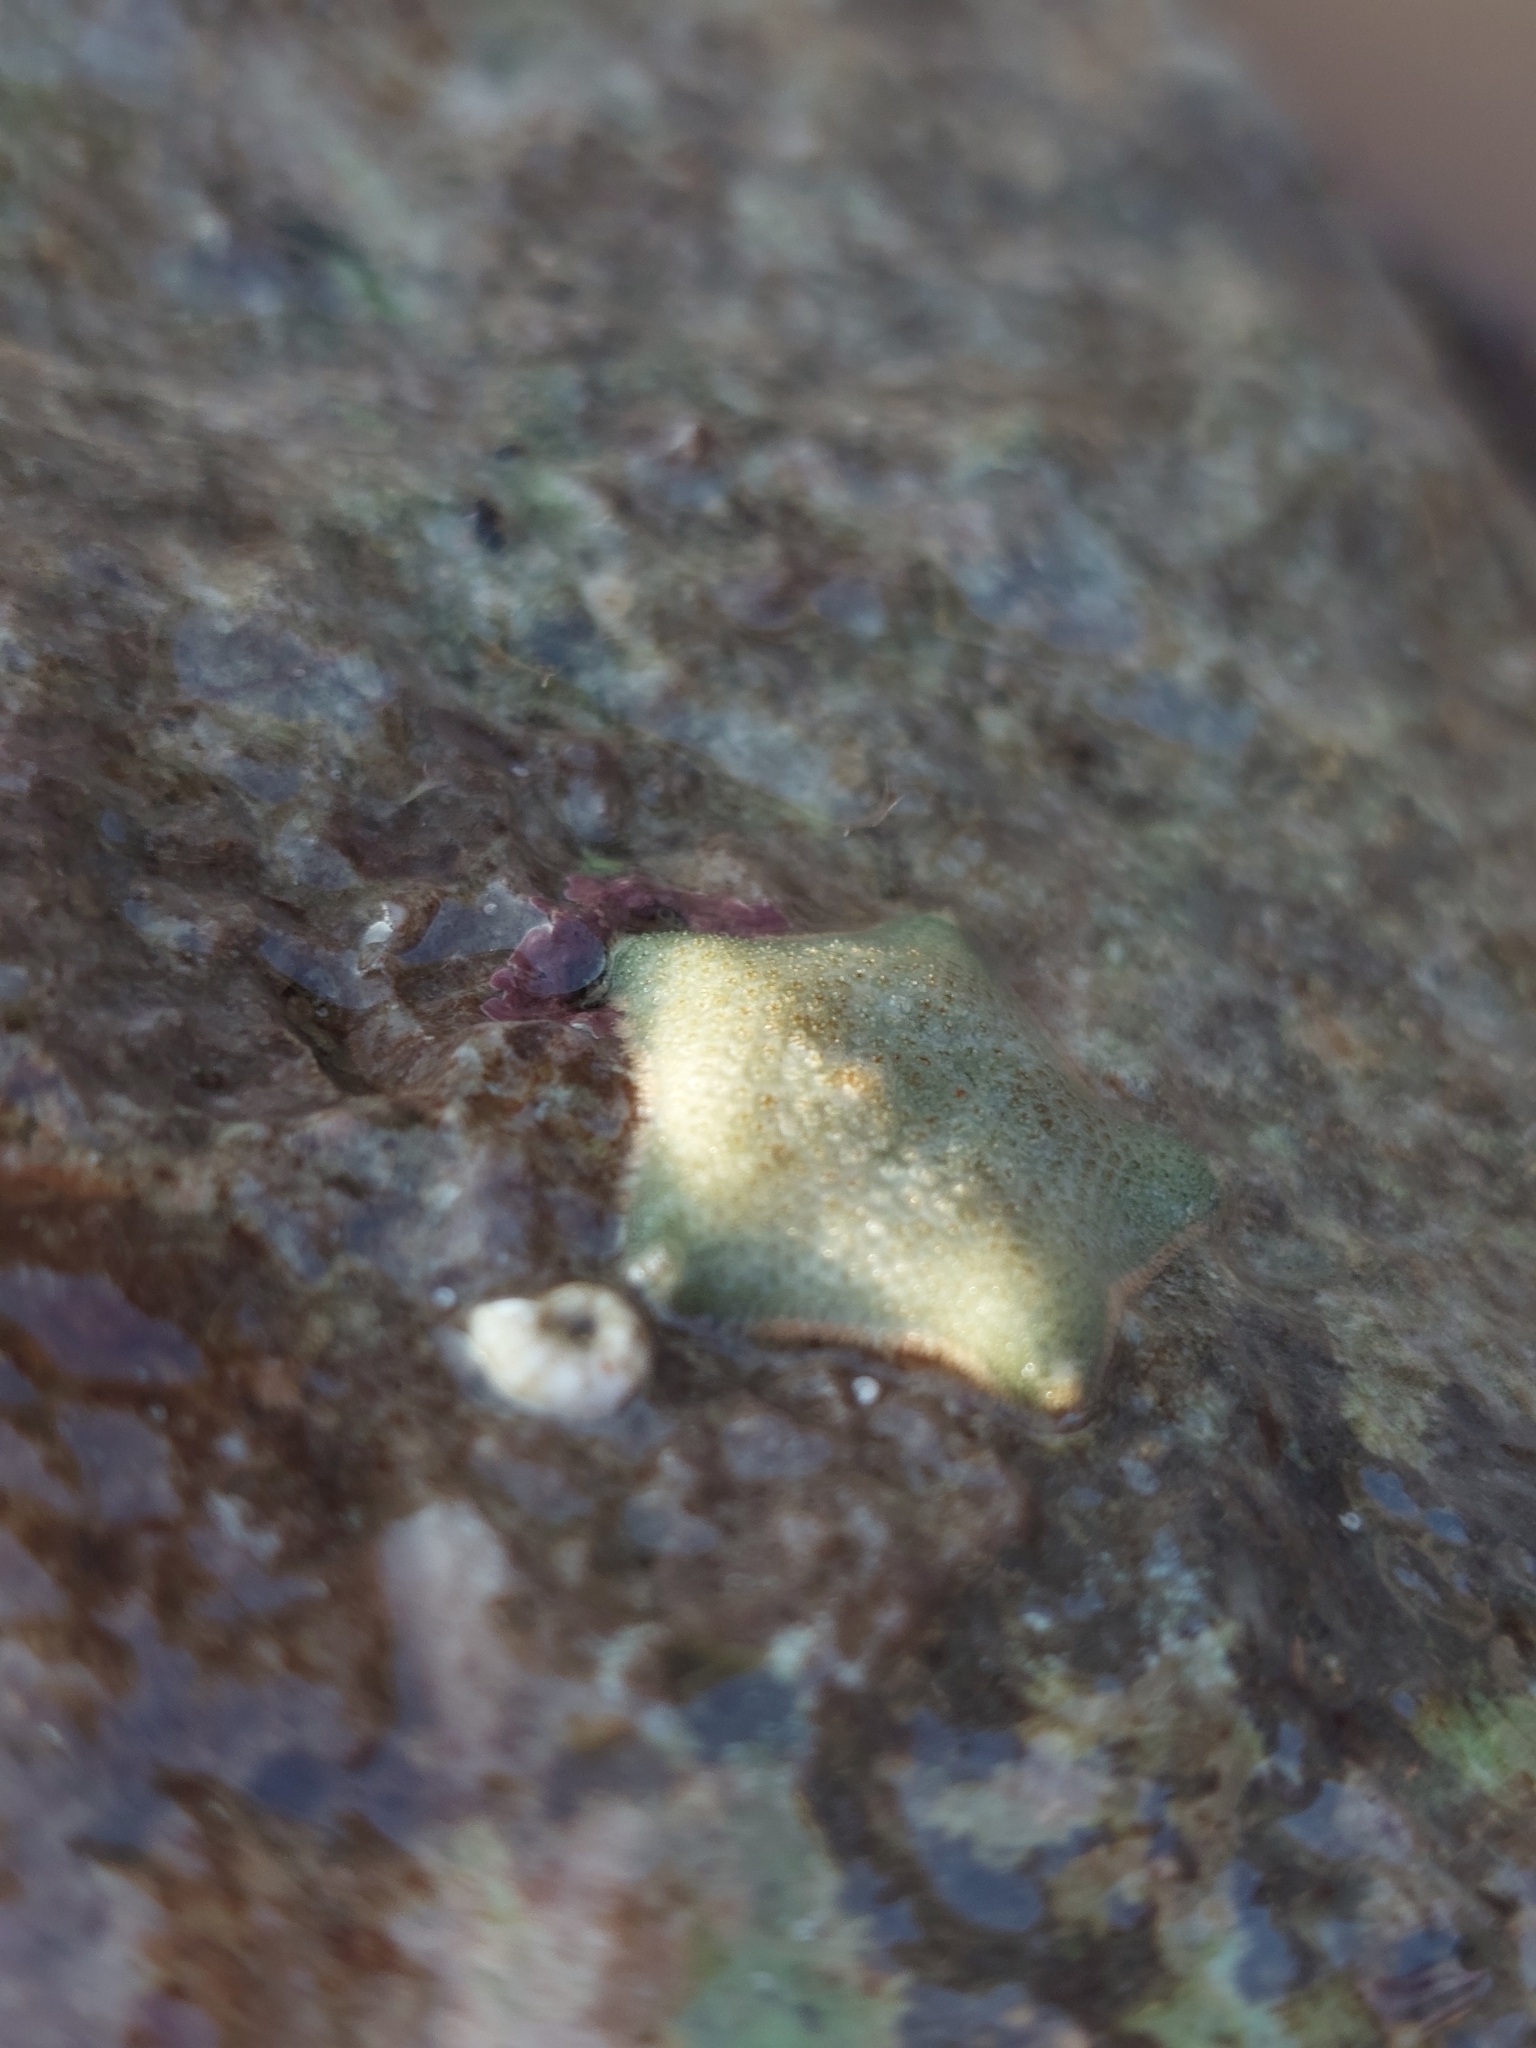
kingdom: Animalia
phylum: Echinodermata
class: Asteroidea
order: Valvatida
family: Asterinidae
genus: Asterina
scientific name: Asterina gibbosa
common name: Cushion star
